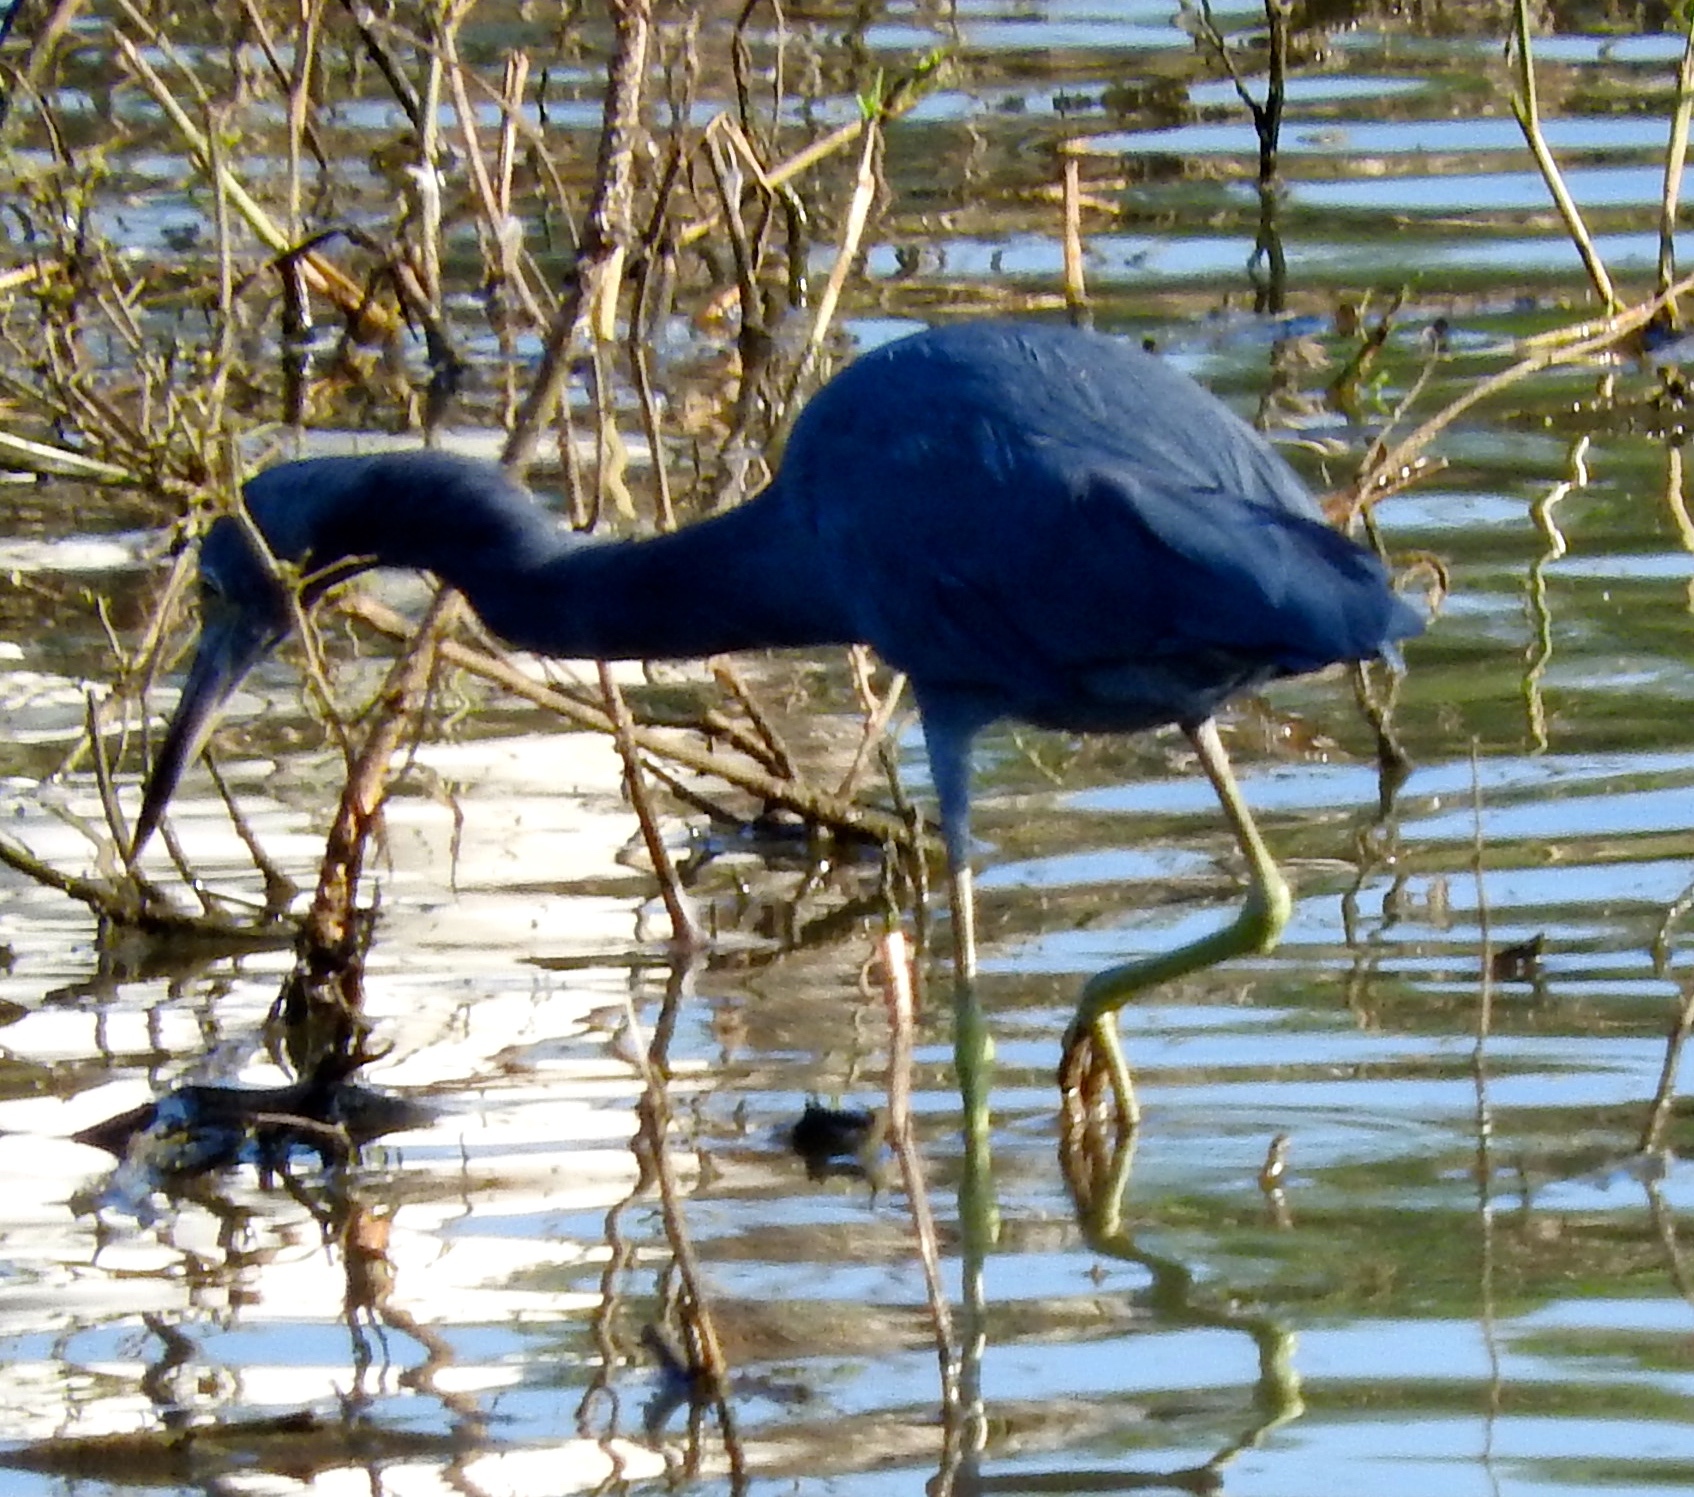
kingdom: Animalia
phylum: Chordata
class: Aves
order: Pelecaniformes
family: Ardeidae
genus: Egretta
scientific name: Egretta caerulea
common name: Little blue heron
